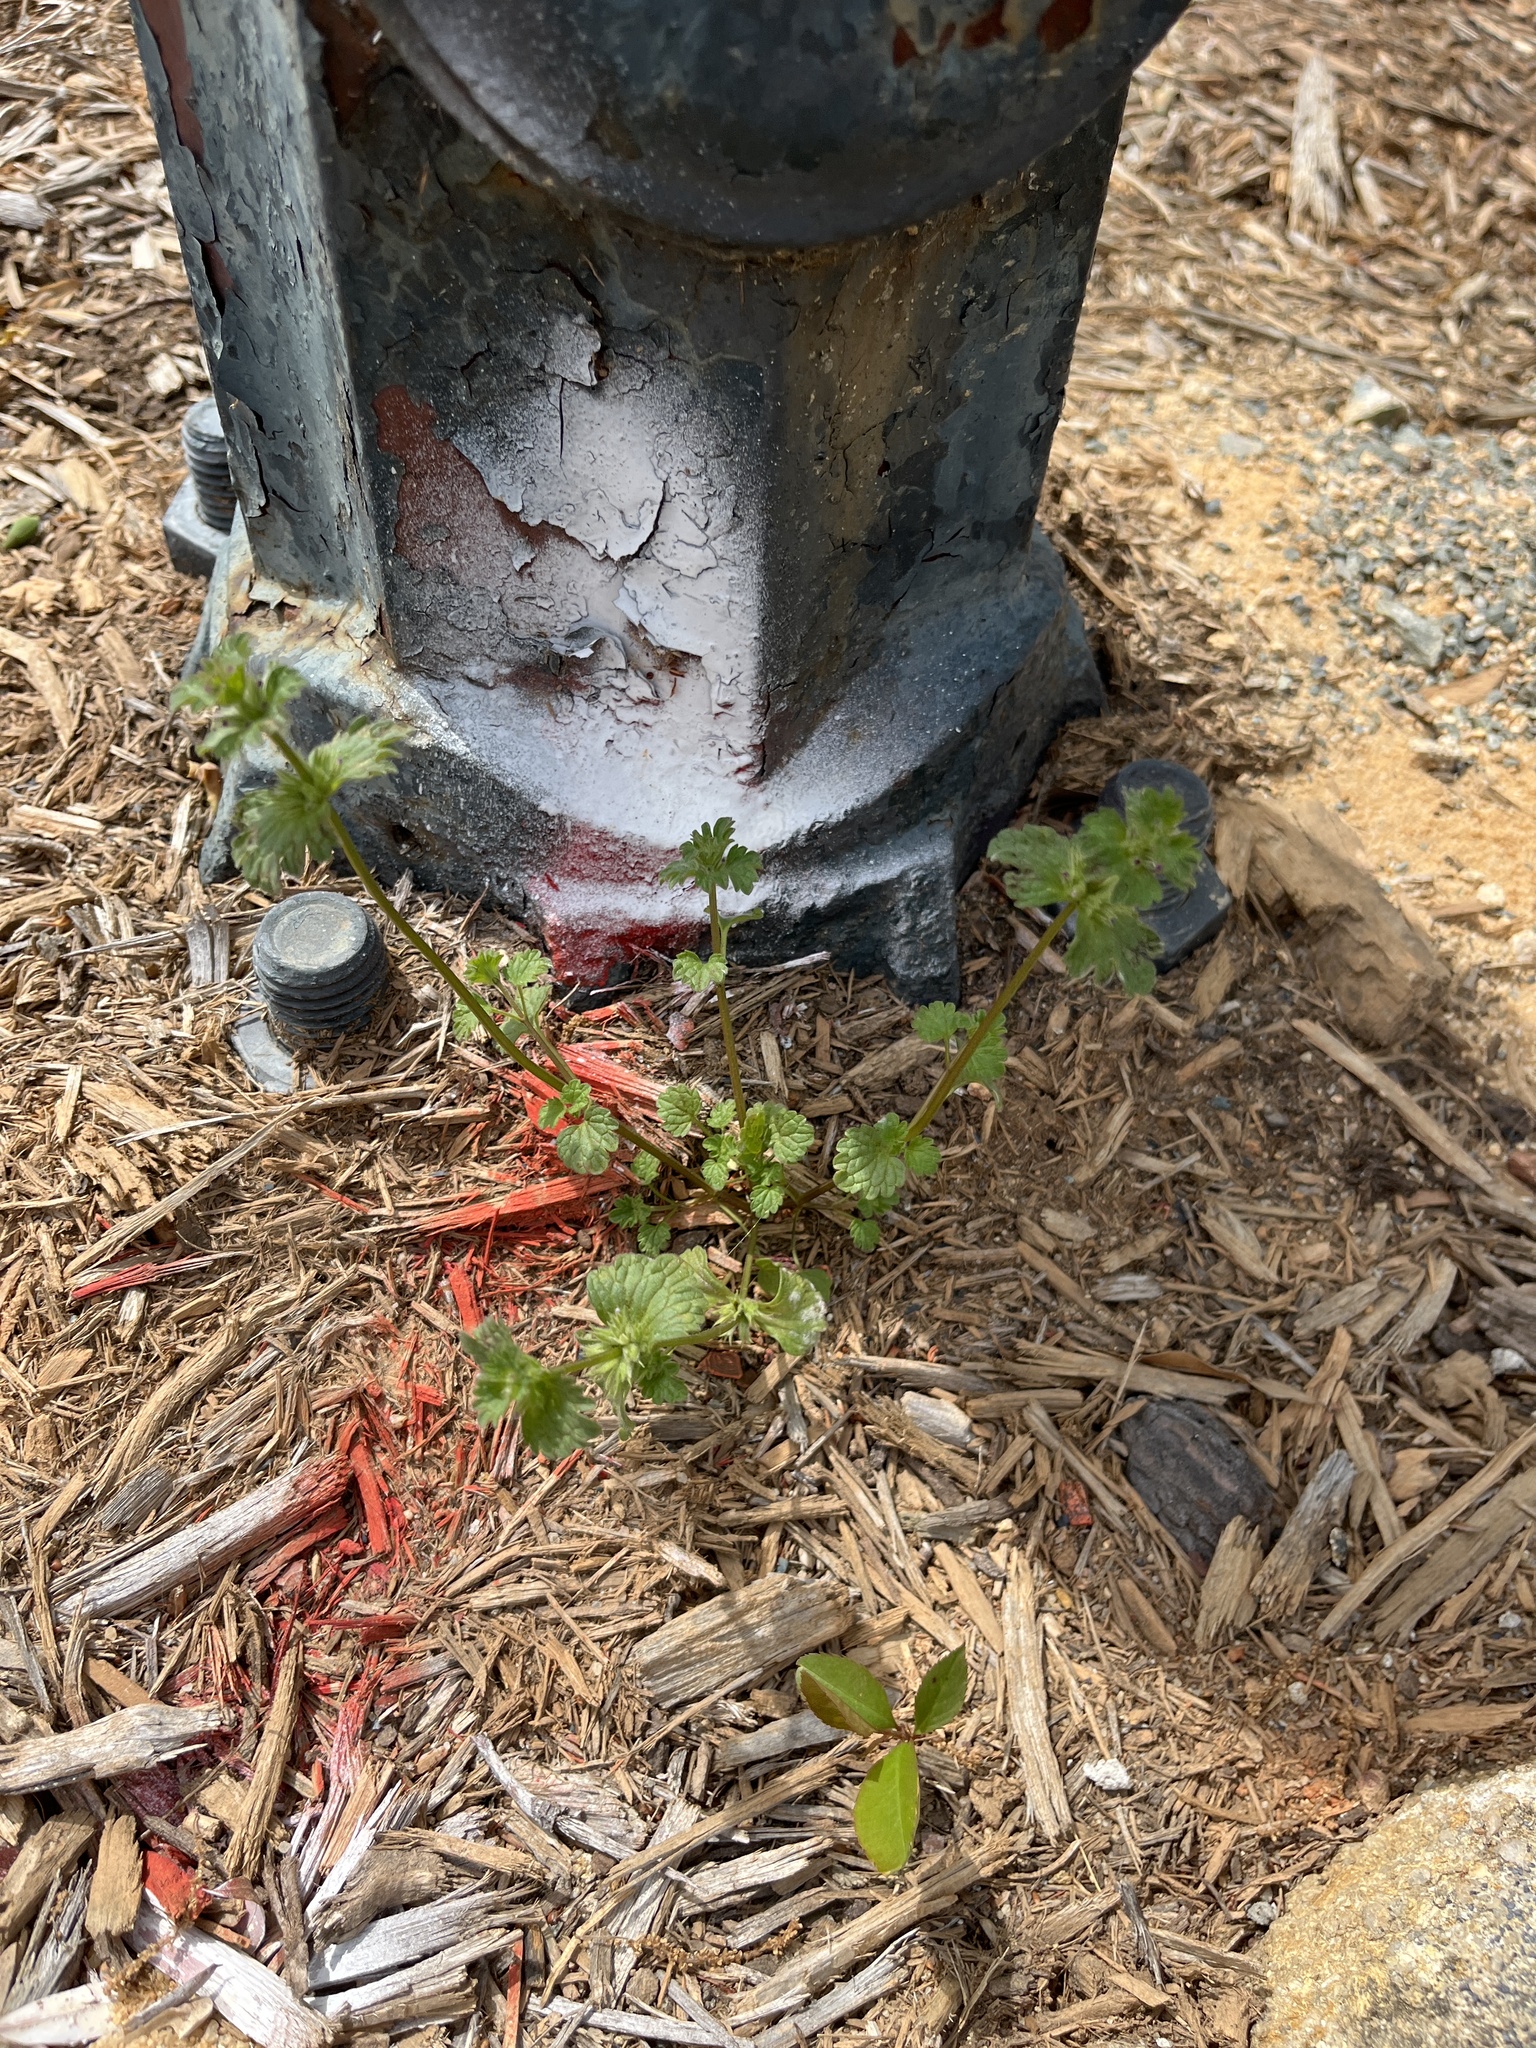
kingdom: Plantae
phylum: Tracheophyta
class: Magnoliopsida
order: Lamiales
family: Lamiaceae
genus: Lamium
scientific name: Lamium amplexicaule
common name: Henbit dead-nettle
